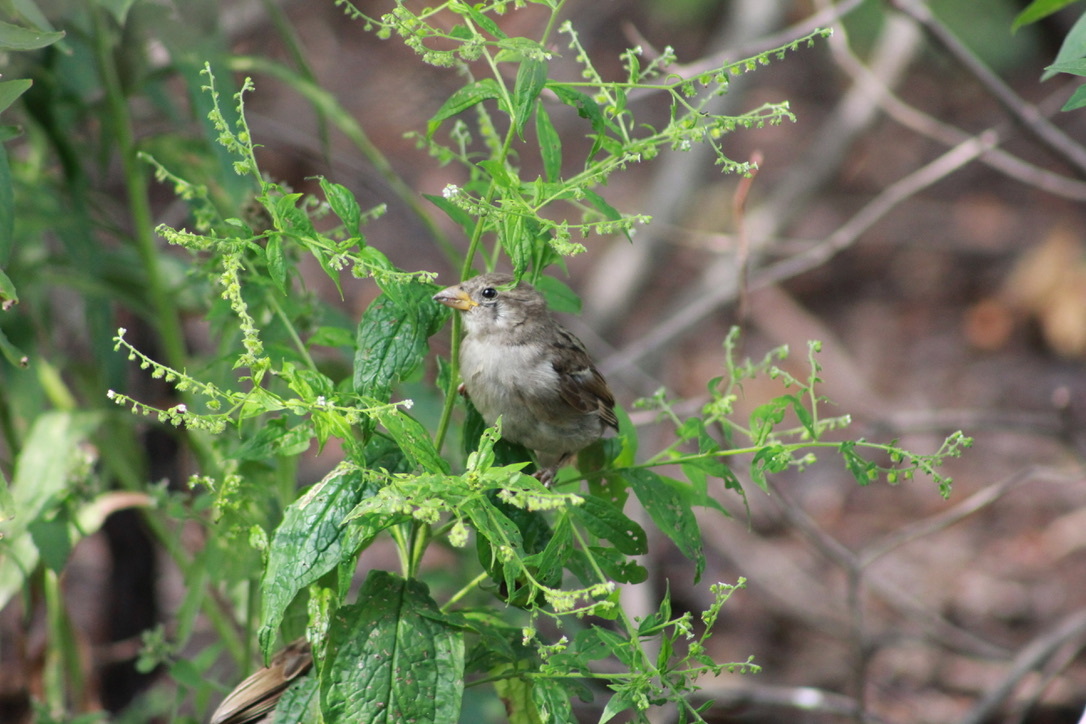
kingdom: Animalia
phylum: Chordata
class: Aves
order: Passeriformes
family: Passeridae
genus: Passer
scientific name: Passer domesticus
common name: House sparrow
